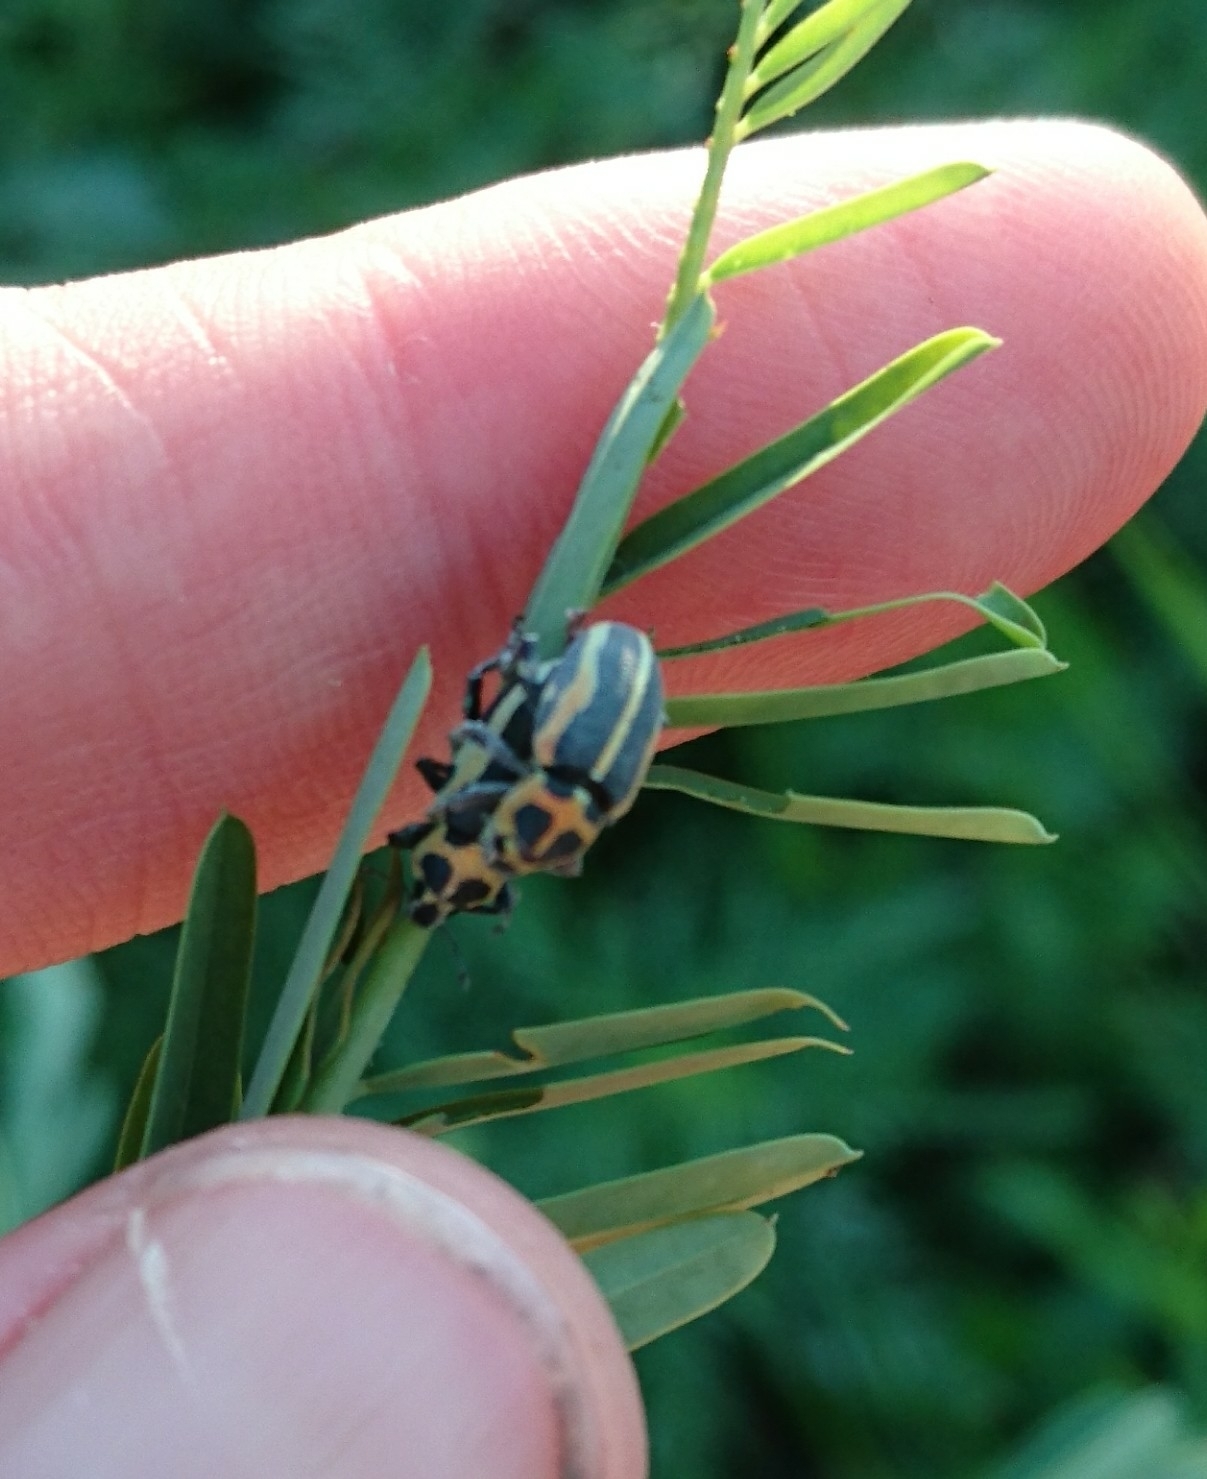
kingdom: Animalia
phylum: Arthropoda
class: Insecta
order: Coleoptera
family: Curculionidae
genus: Eudiagogus
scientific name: Eudiagogus pulcher
